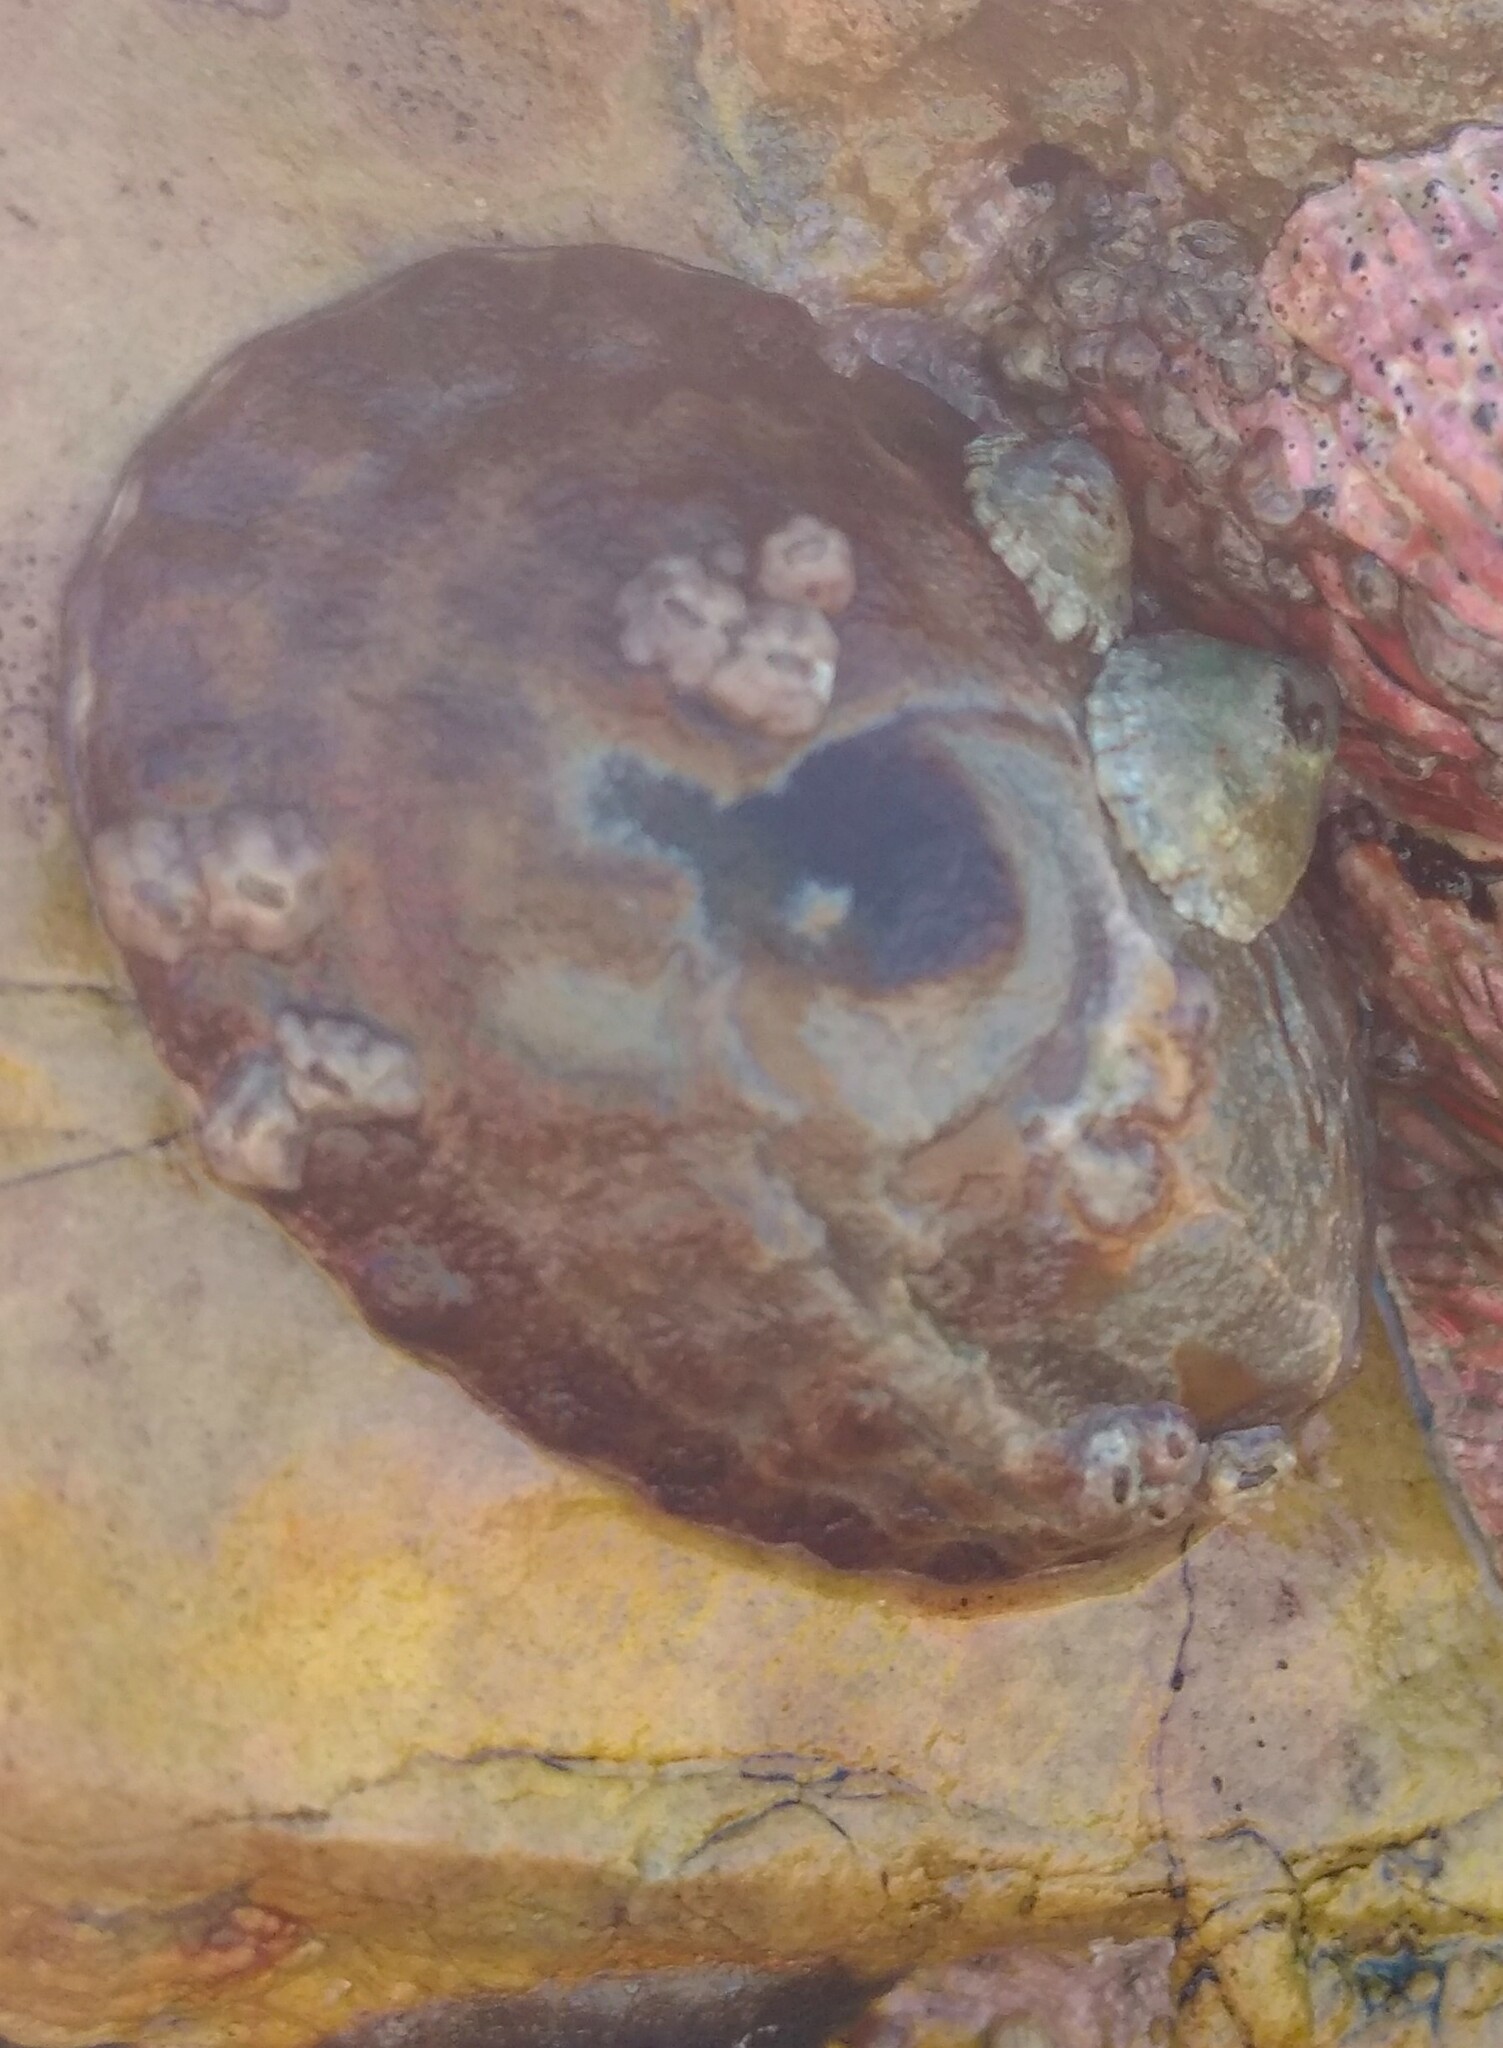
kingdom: Animalia
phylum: Mollusca
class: Gastropoda
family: Lottiidae
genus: Lottia
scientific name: Lottia gigantea
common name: Owl limpet
